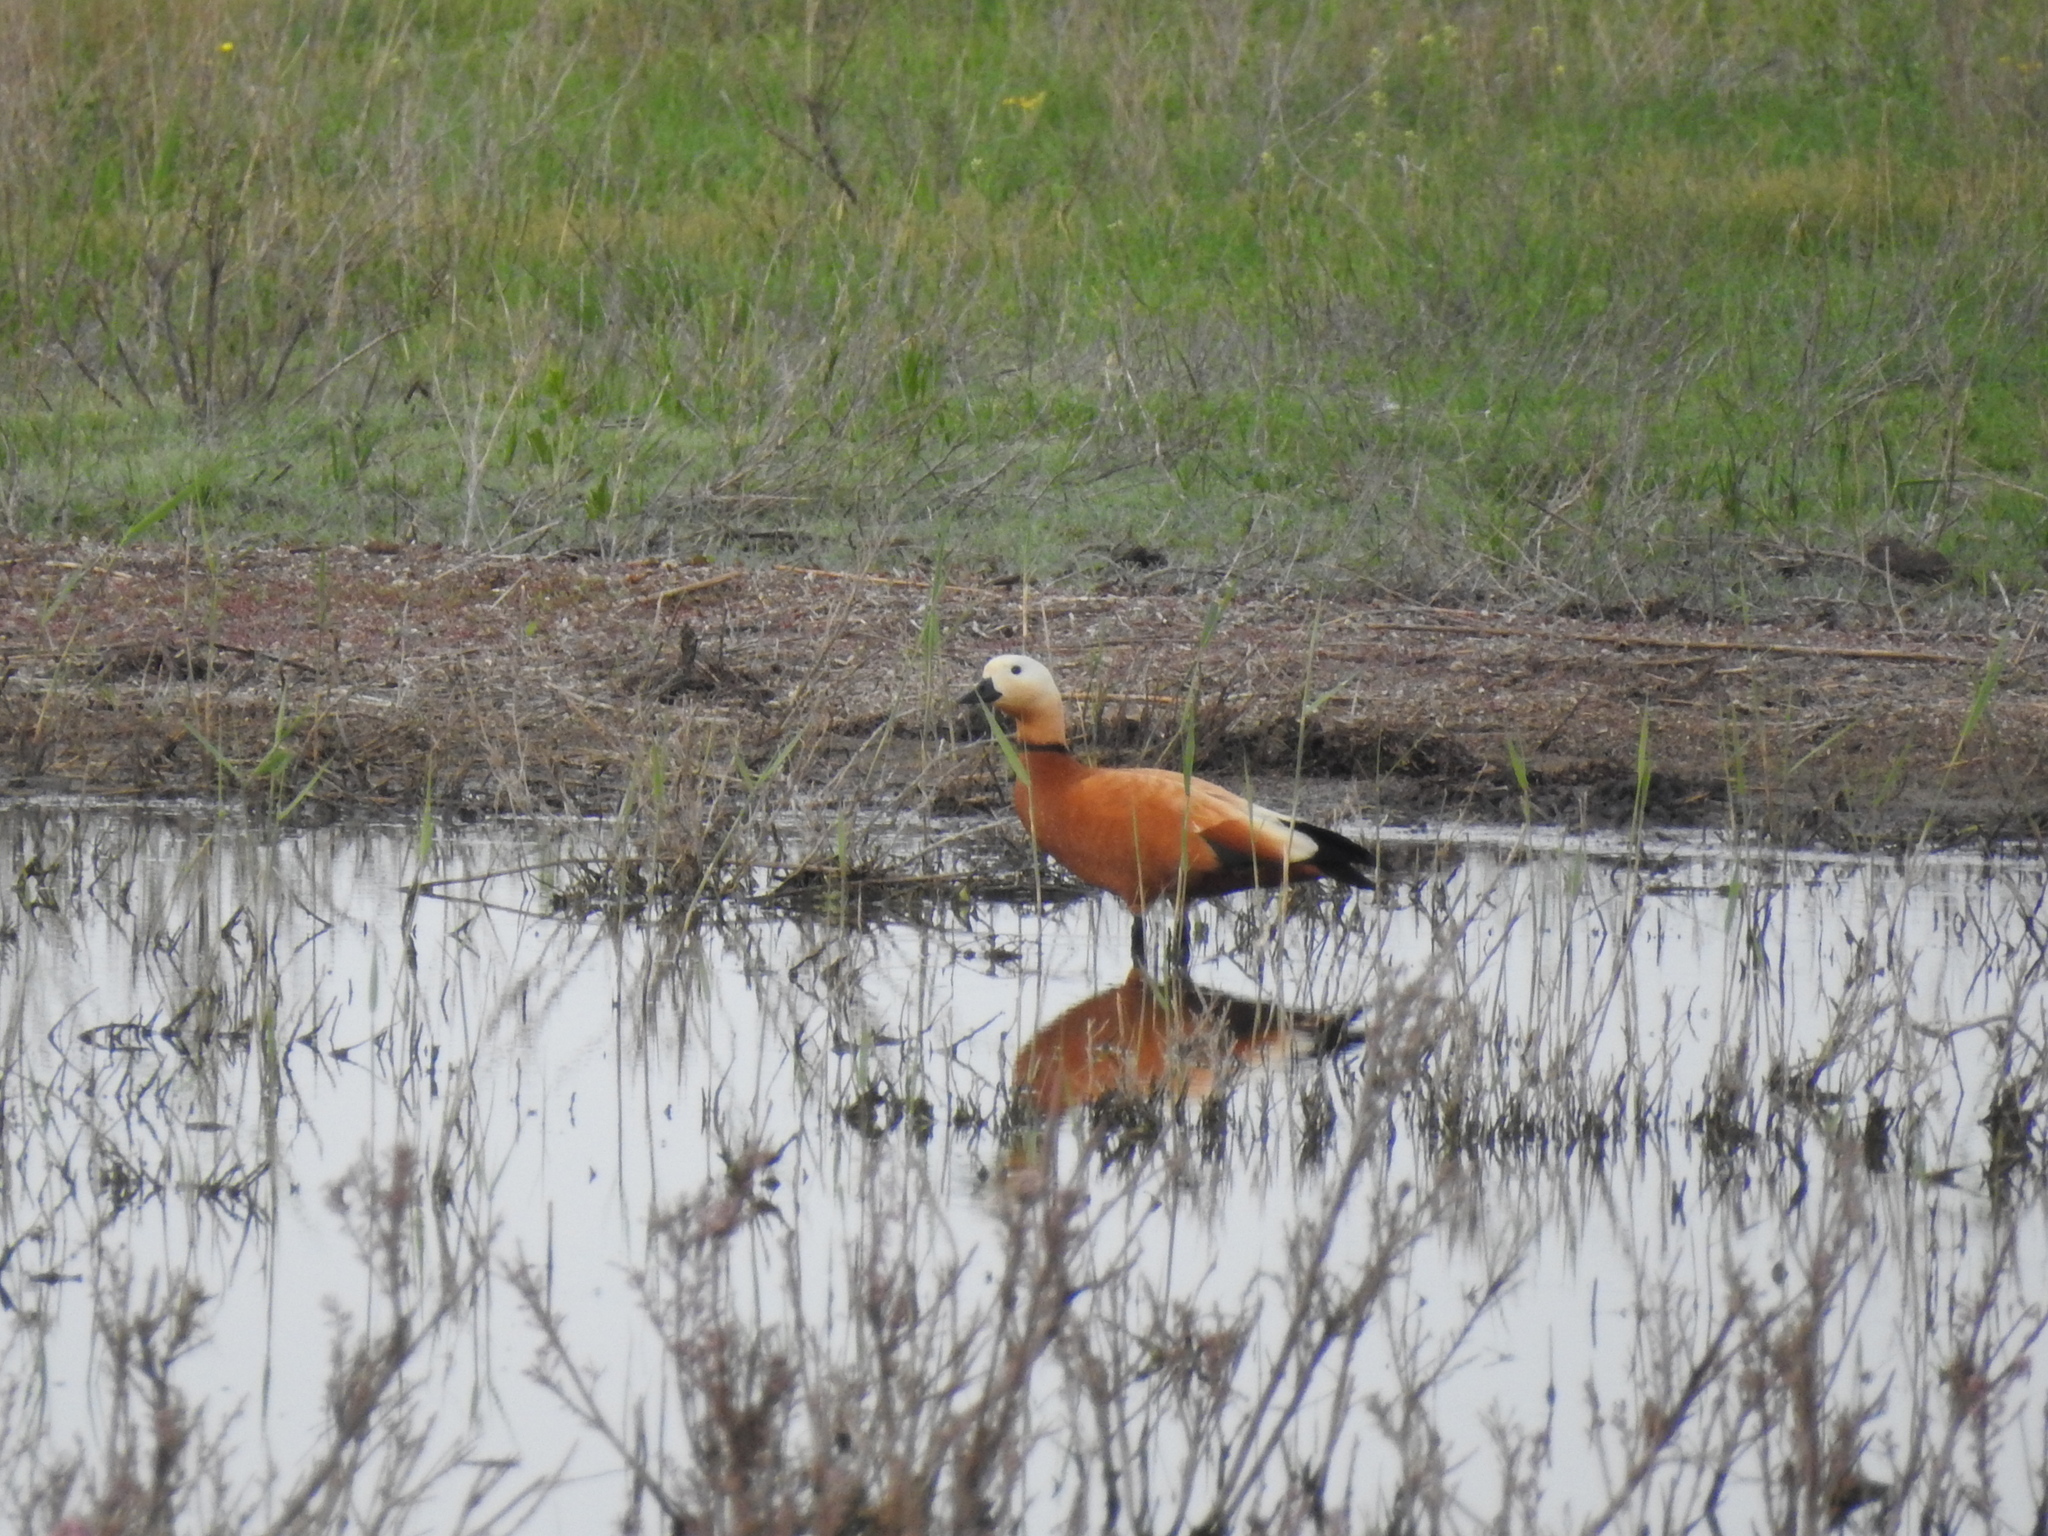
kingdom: Animalia
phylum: Chordata
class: Aves
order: Anseriformes
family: Anatidae
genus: Tadorna
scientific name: Tadorna ferruginea
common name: Ruddy shelduck
